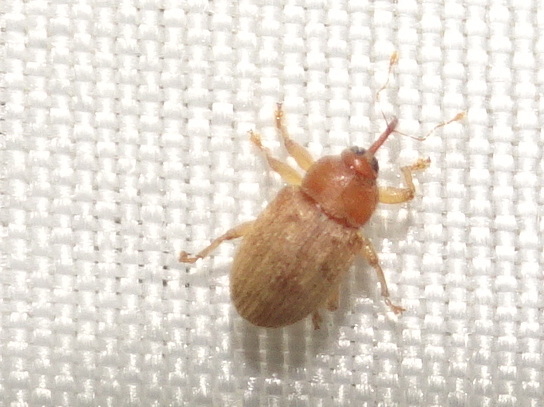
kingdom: Animalia
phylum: Arthropoda
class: Insecta
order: Coleoptera
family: Curculionidae
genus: Lignyodes
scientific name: Lignyodes helvolus
